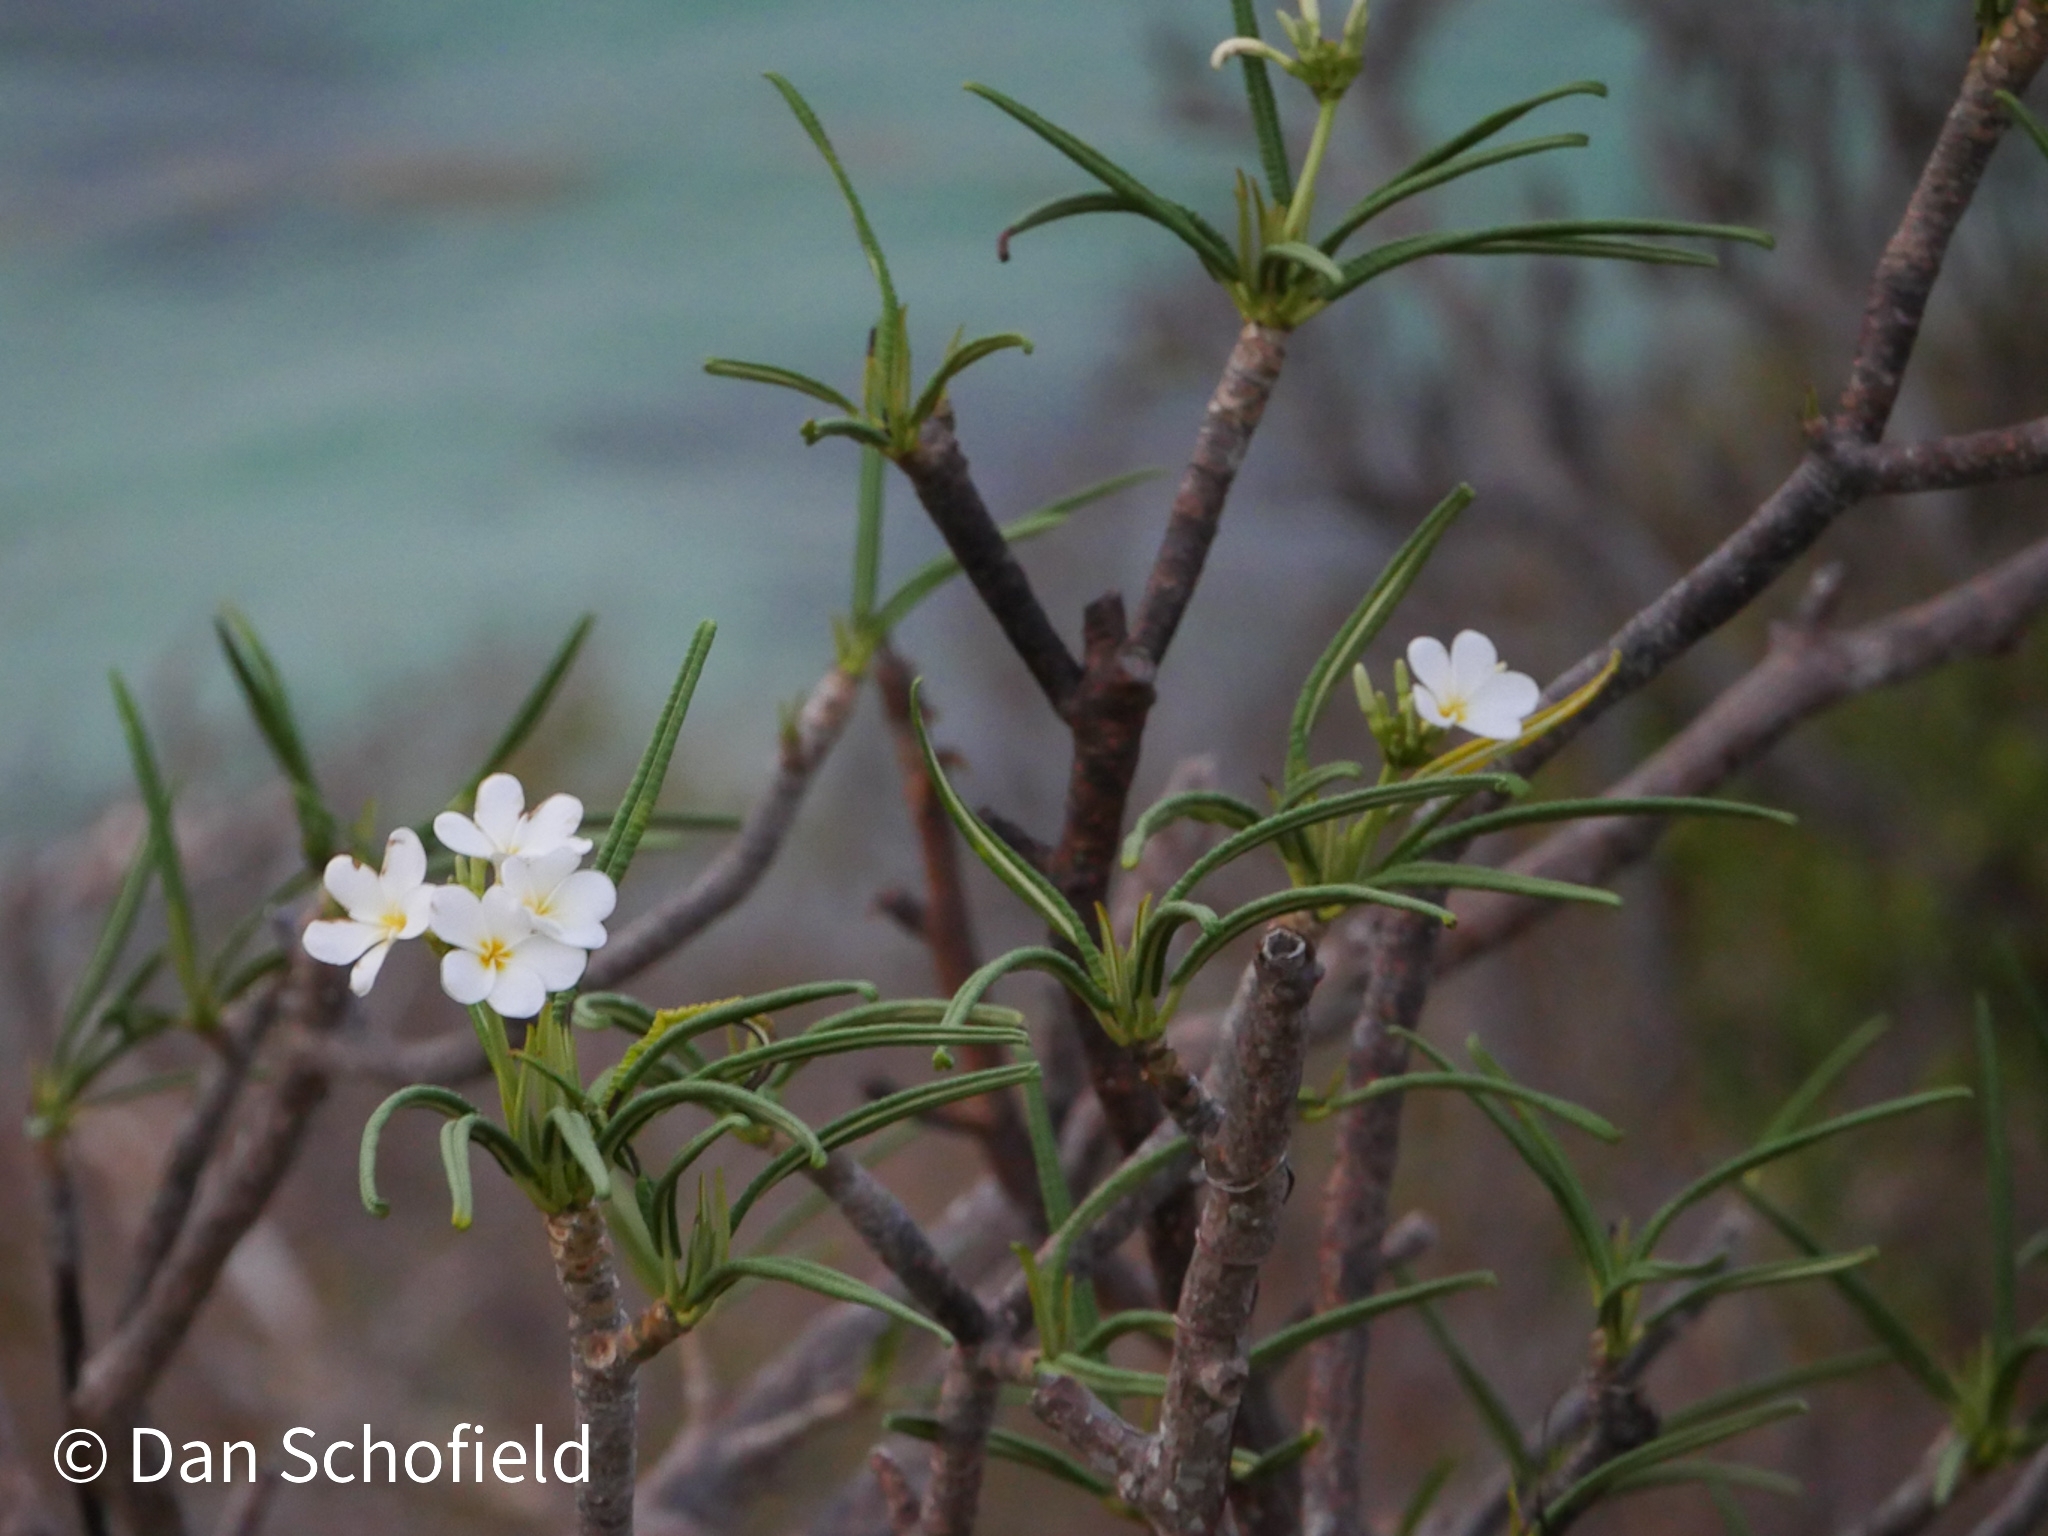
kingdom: Plantae
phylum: Tracheophyta
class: Magnoliopsida
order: Gentianales
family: Apocynaceae
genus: Plumeria
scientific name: Plumeria alba
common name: Wild frangipani
